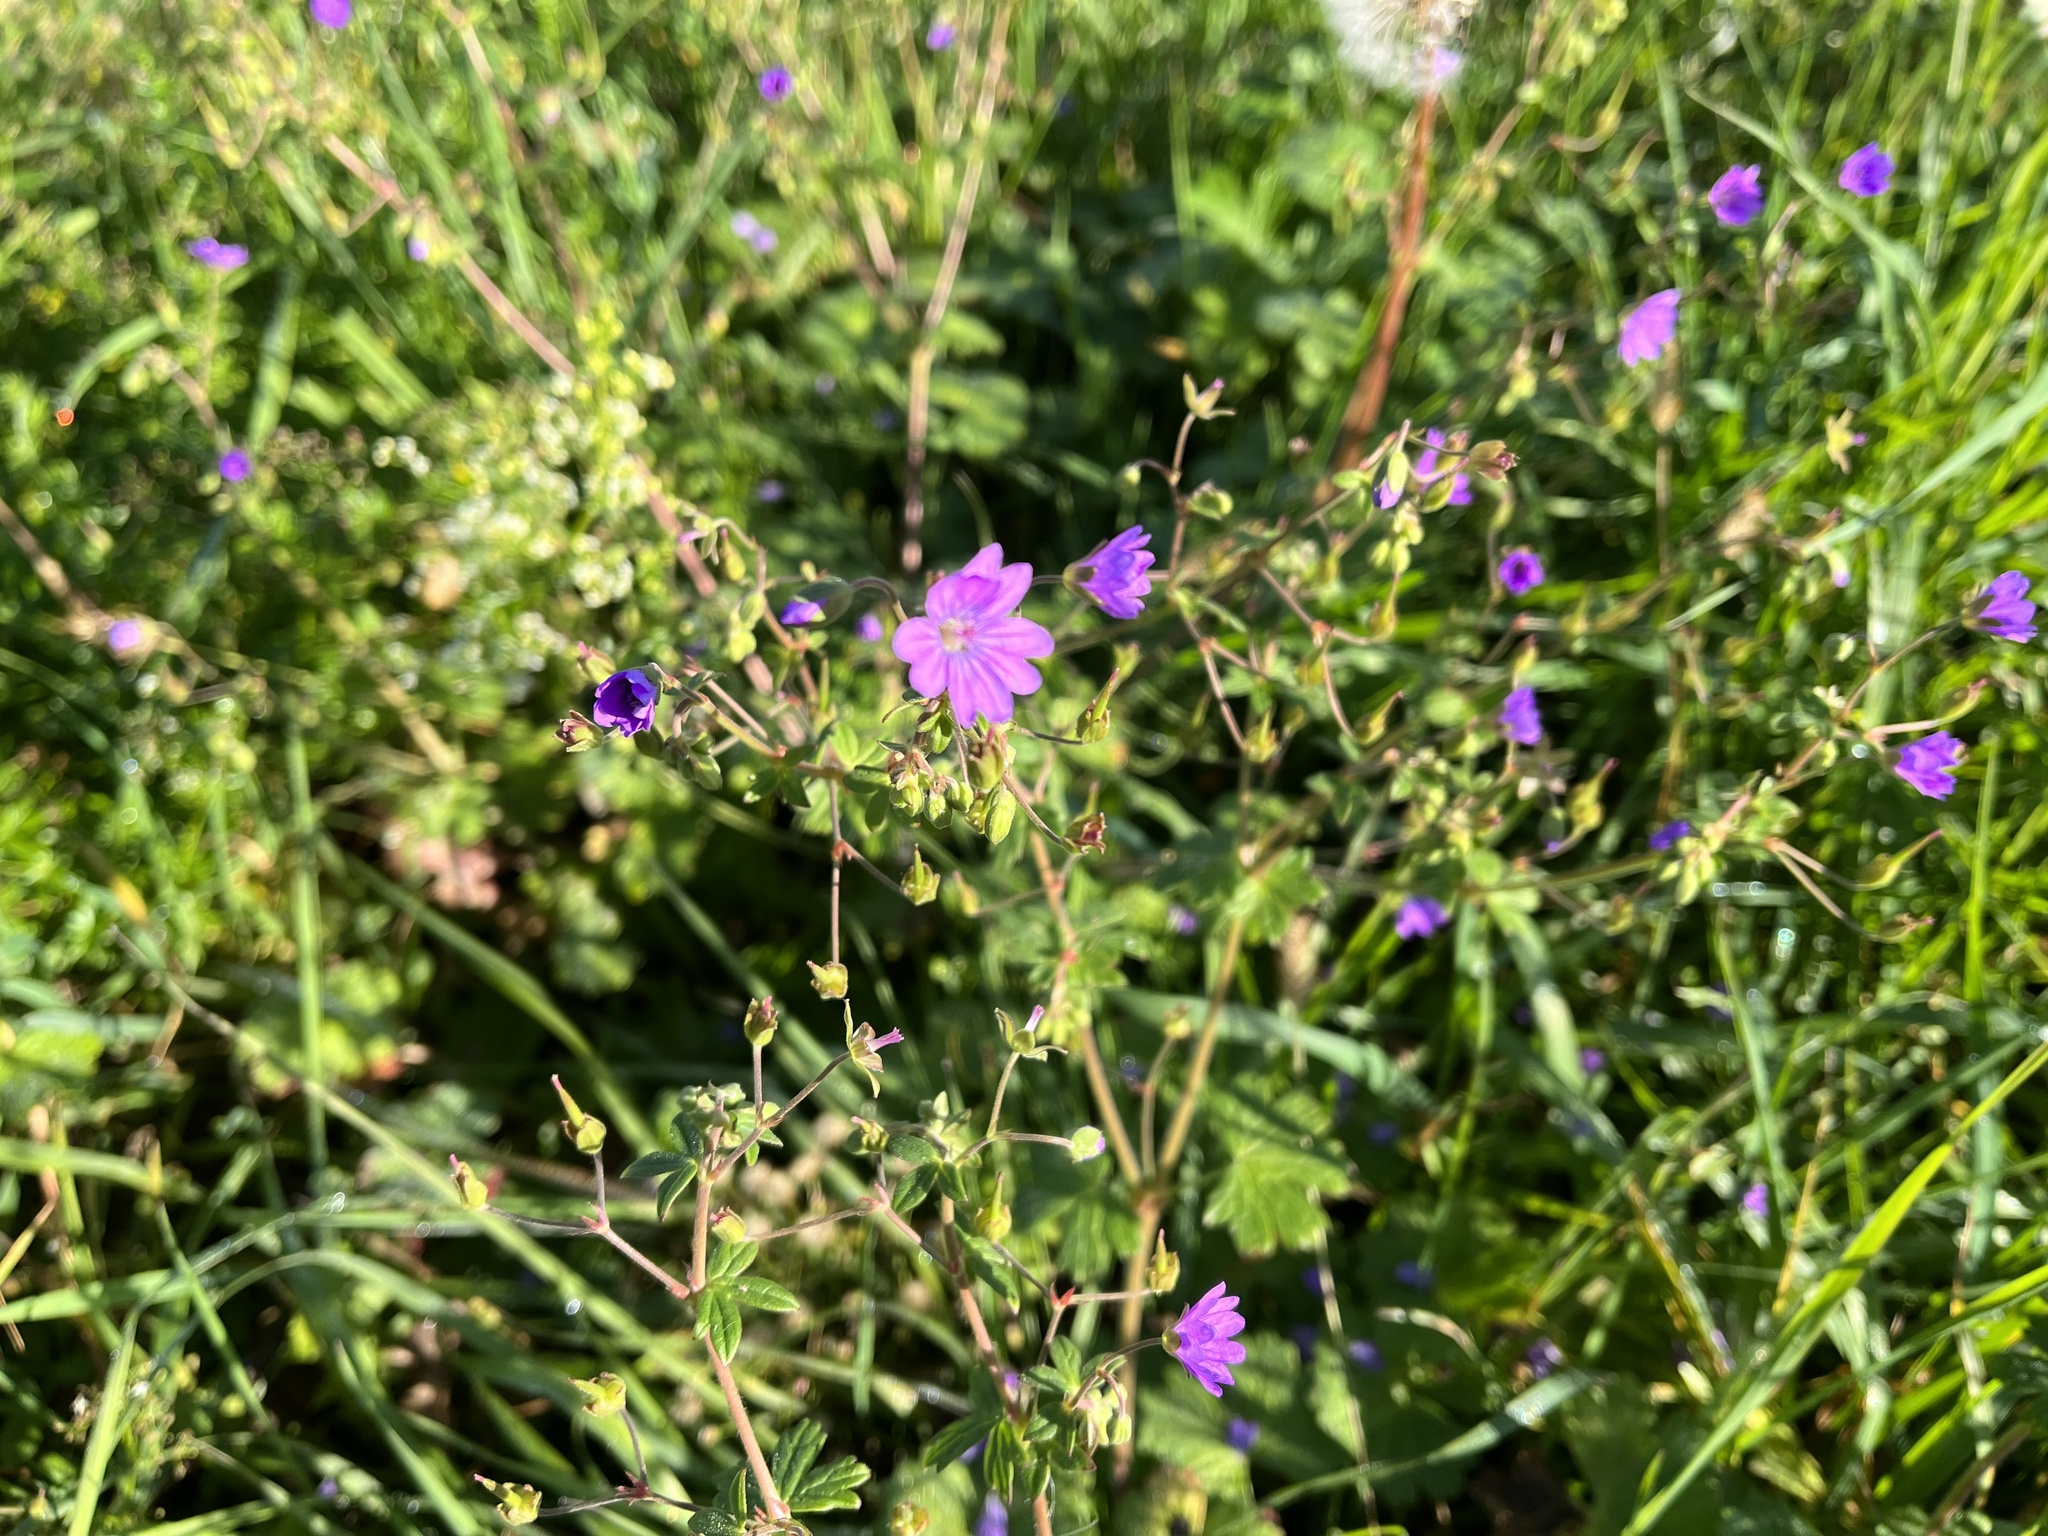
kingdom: Plantae
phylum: Tracheophyta
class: Magnoliopsida
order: Geraniales
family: Geraniaceae
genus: Geranium
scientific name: Geranium pyrenaicum
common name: Hedgerow crane's-bill
